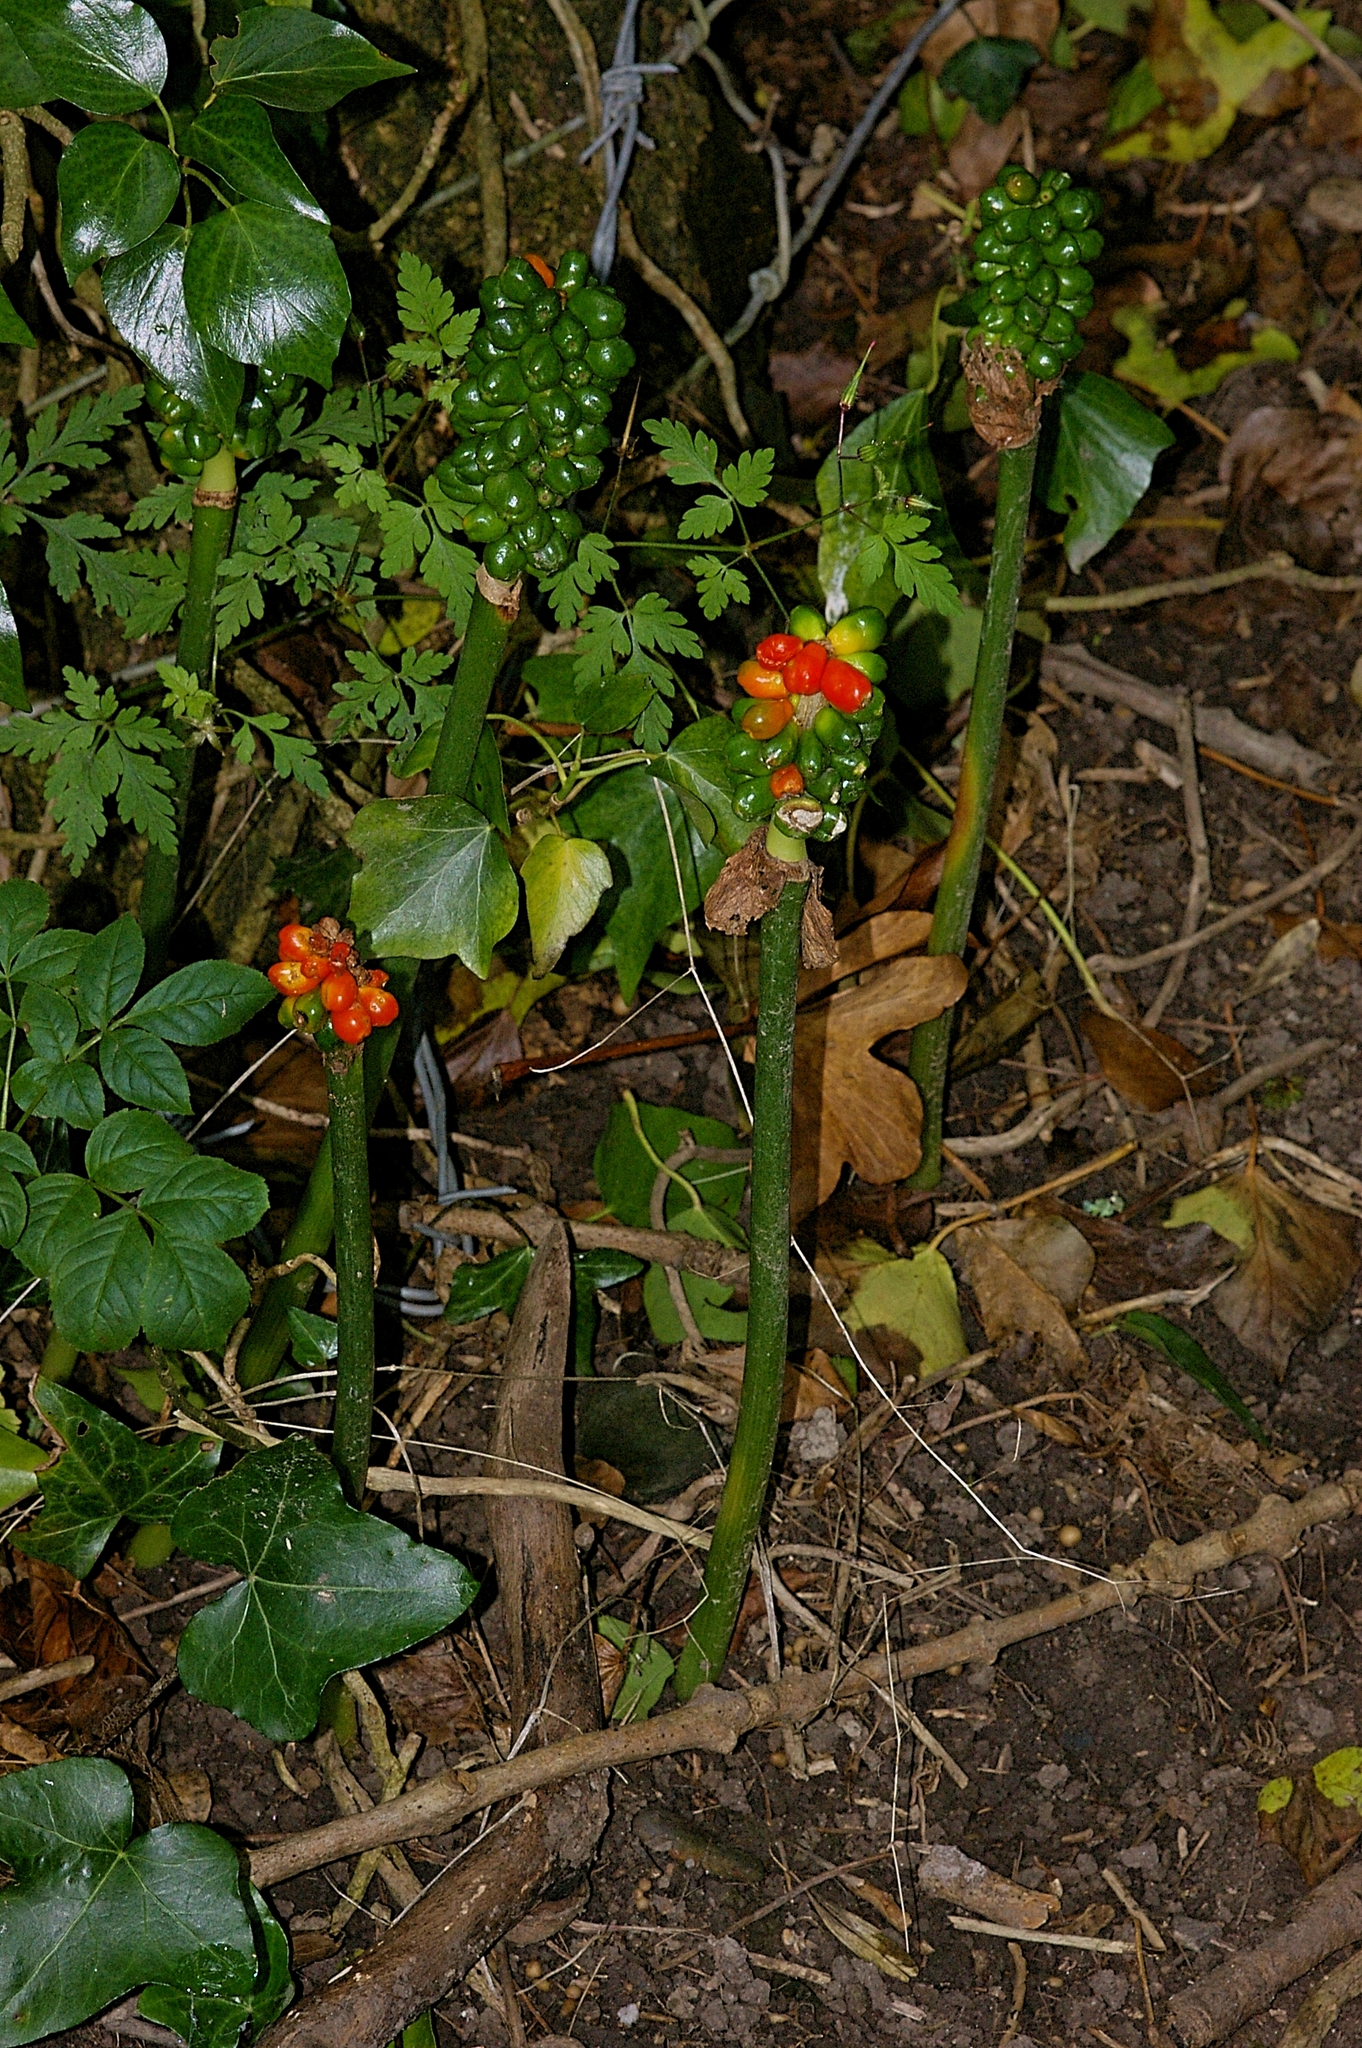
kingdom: Plantae
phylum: Tracheophyta
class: Liliopsida
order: Alismatales
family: Araceae
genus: Arum
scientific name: Arum maculatum
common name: Lords-and-ladies
